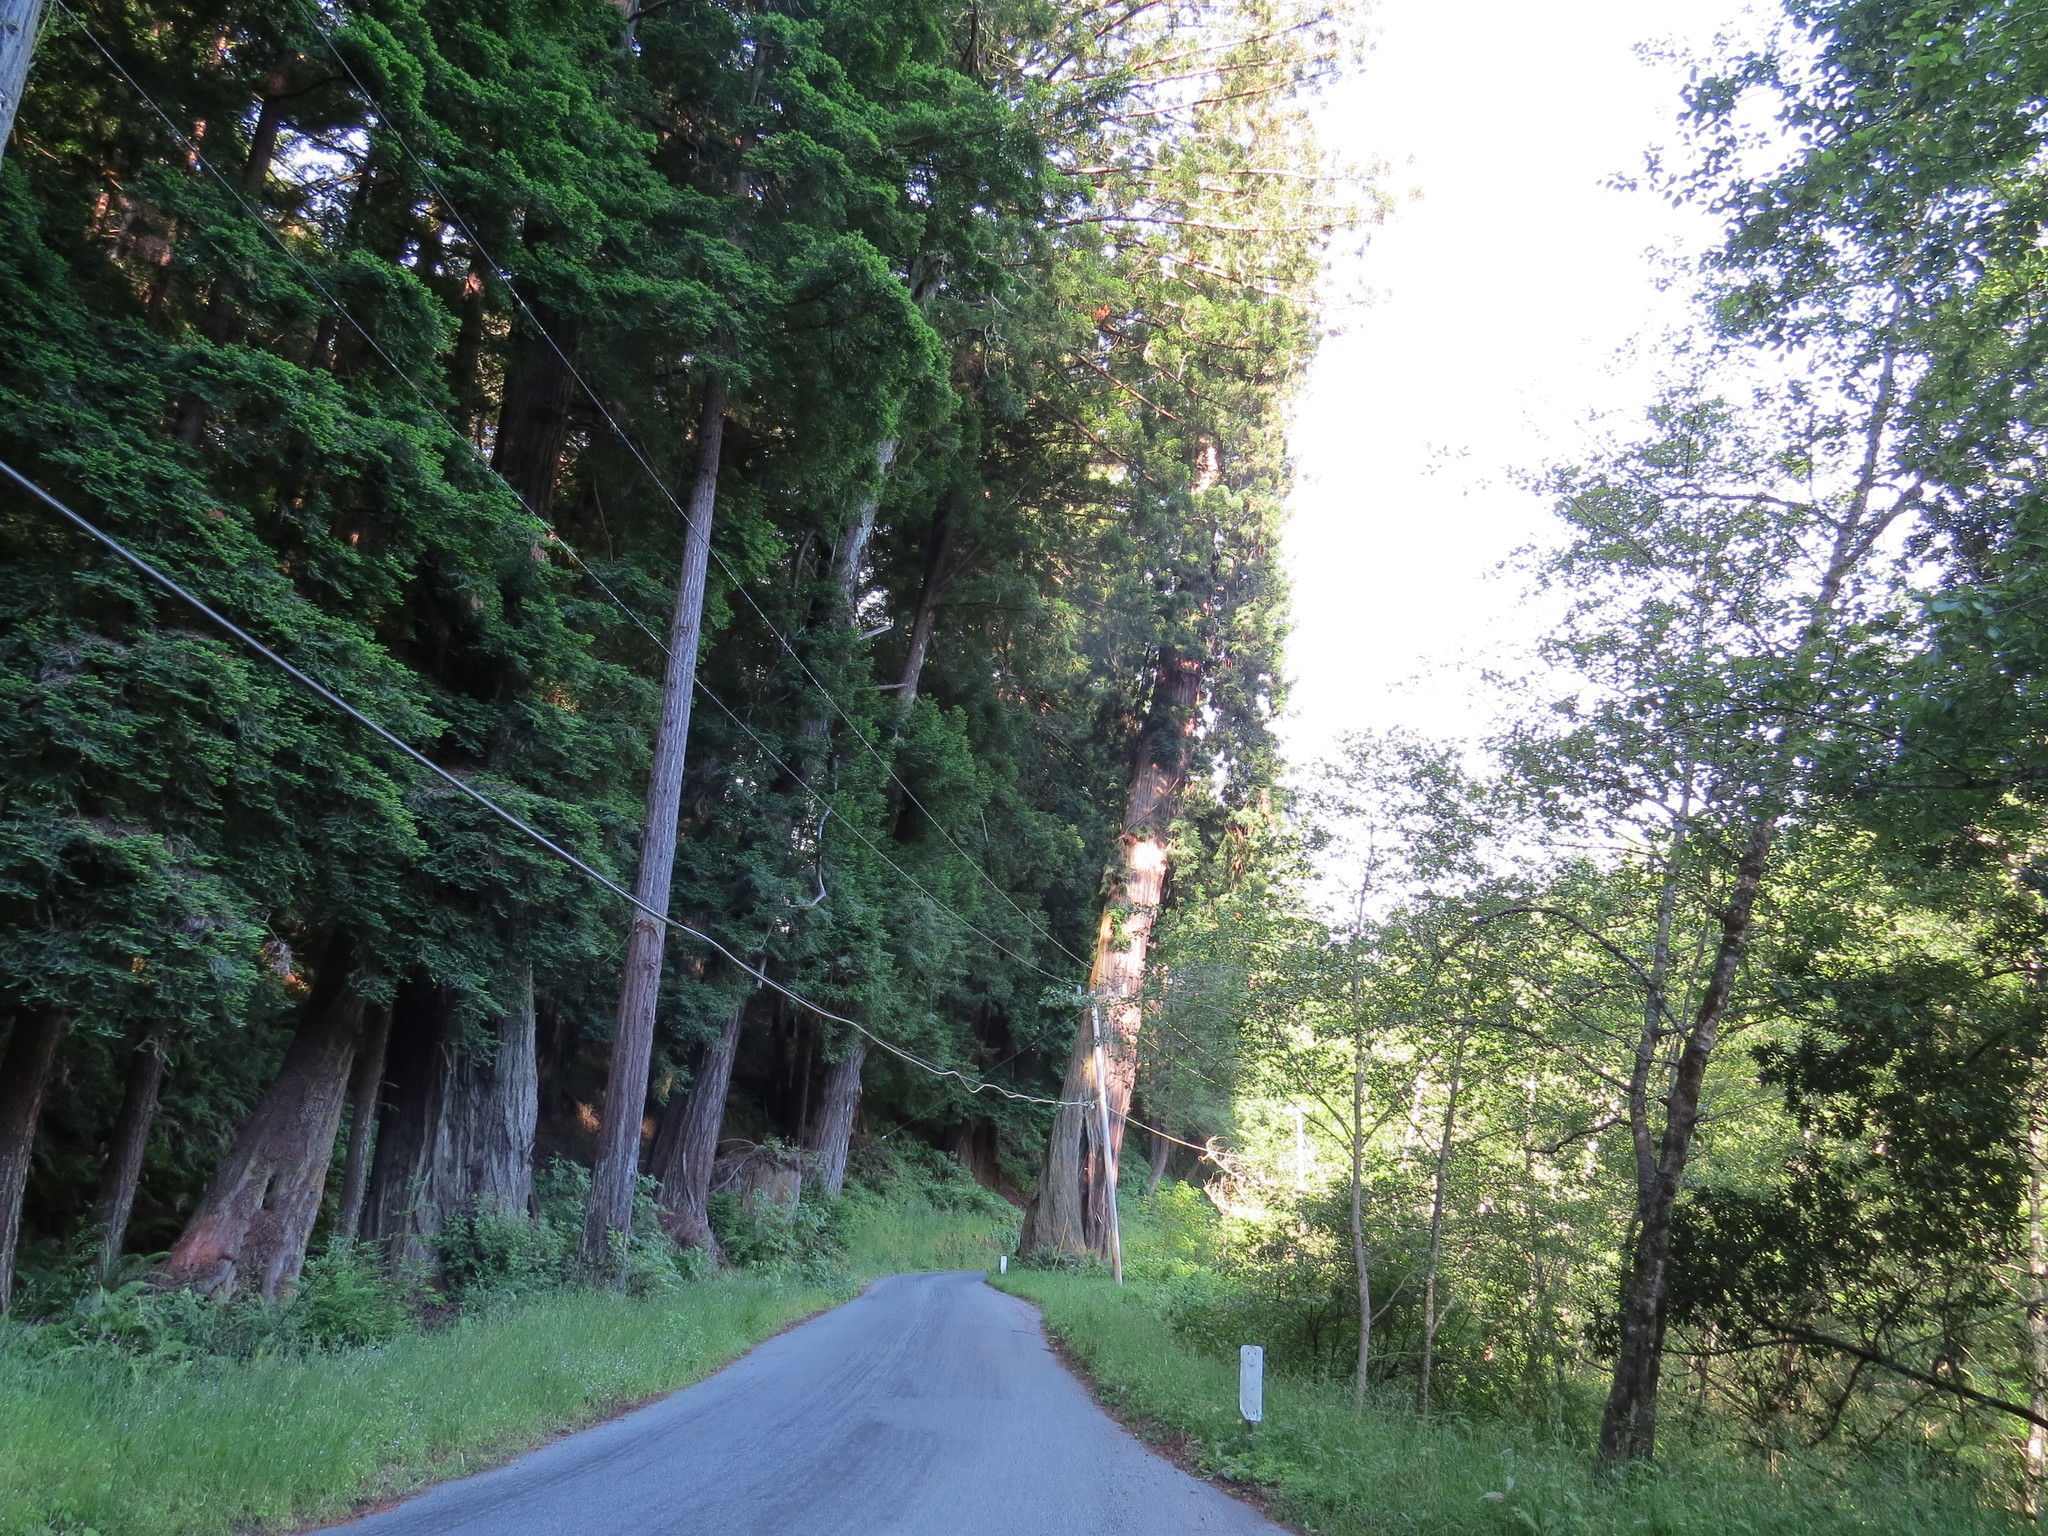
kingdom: Plantae
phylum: Tracheophyta
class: Pinopsida
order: Pinales
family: Cupressaceae
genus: Sequoia
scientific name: Sequoia sempervirens
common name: Coast redwood
